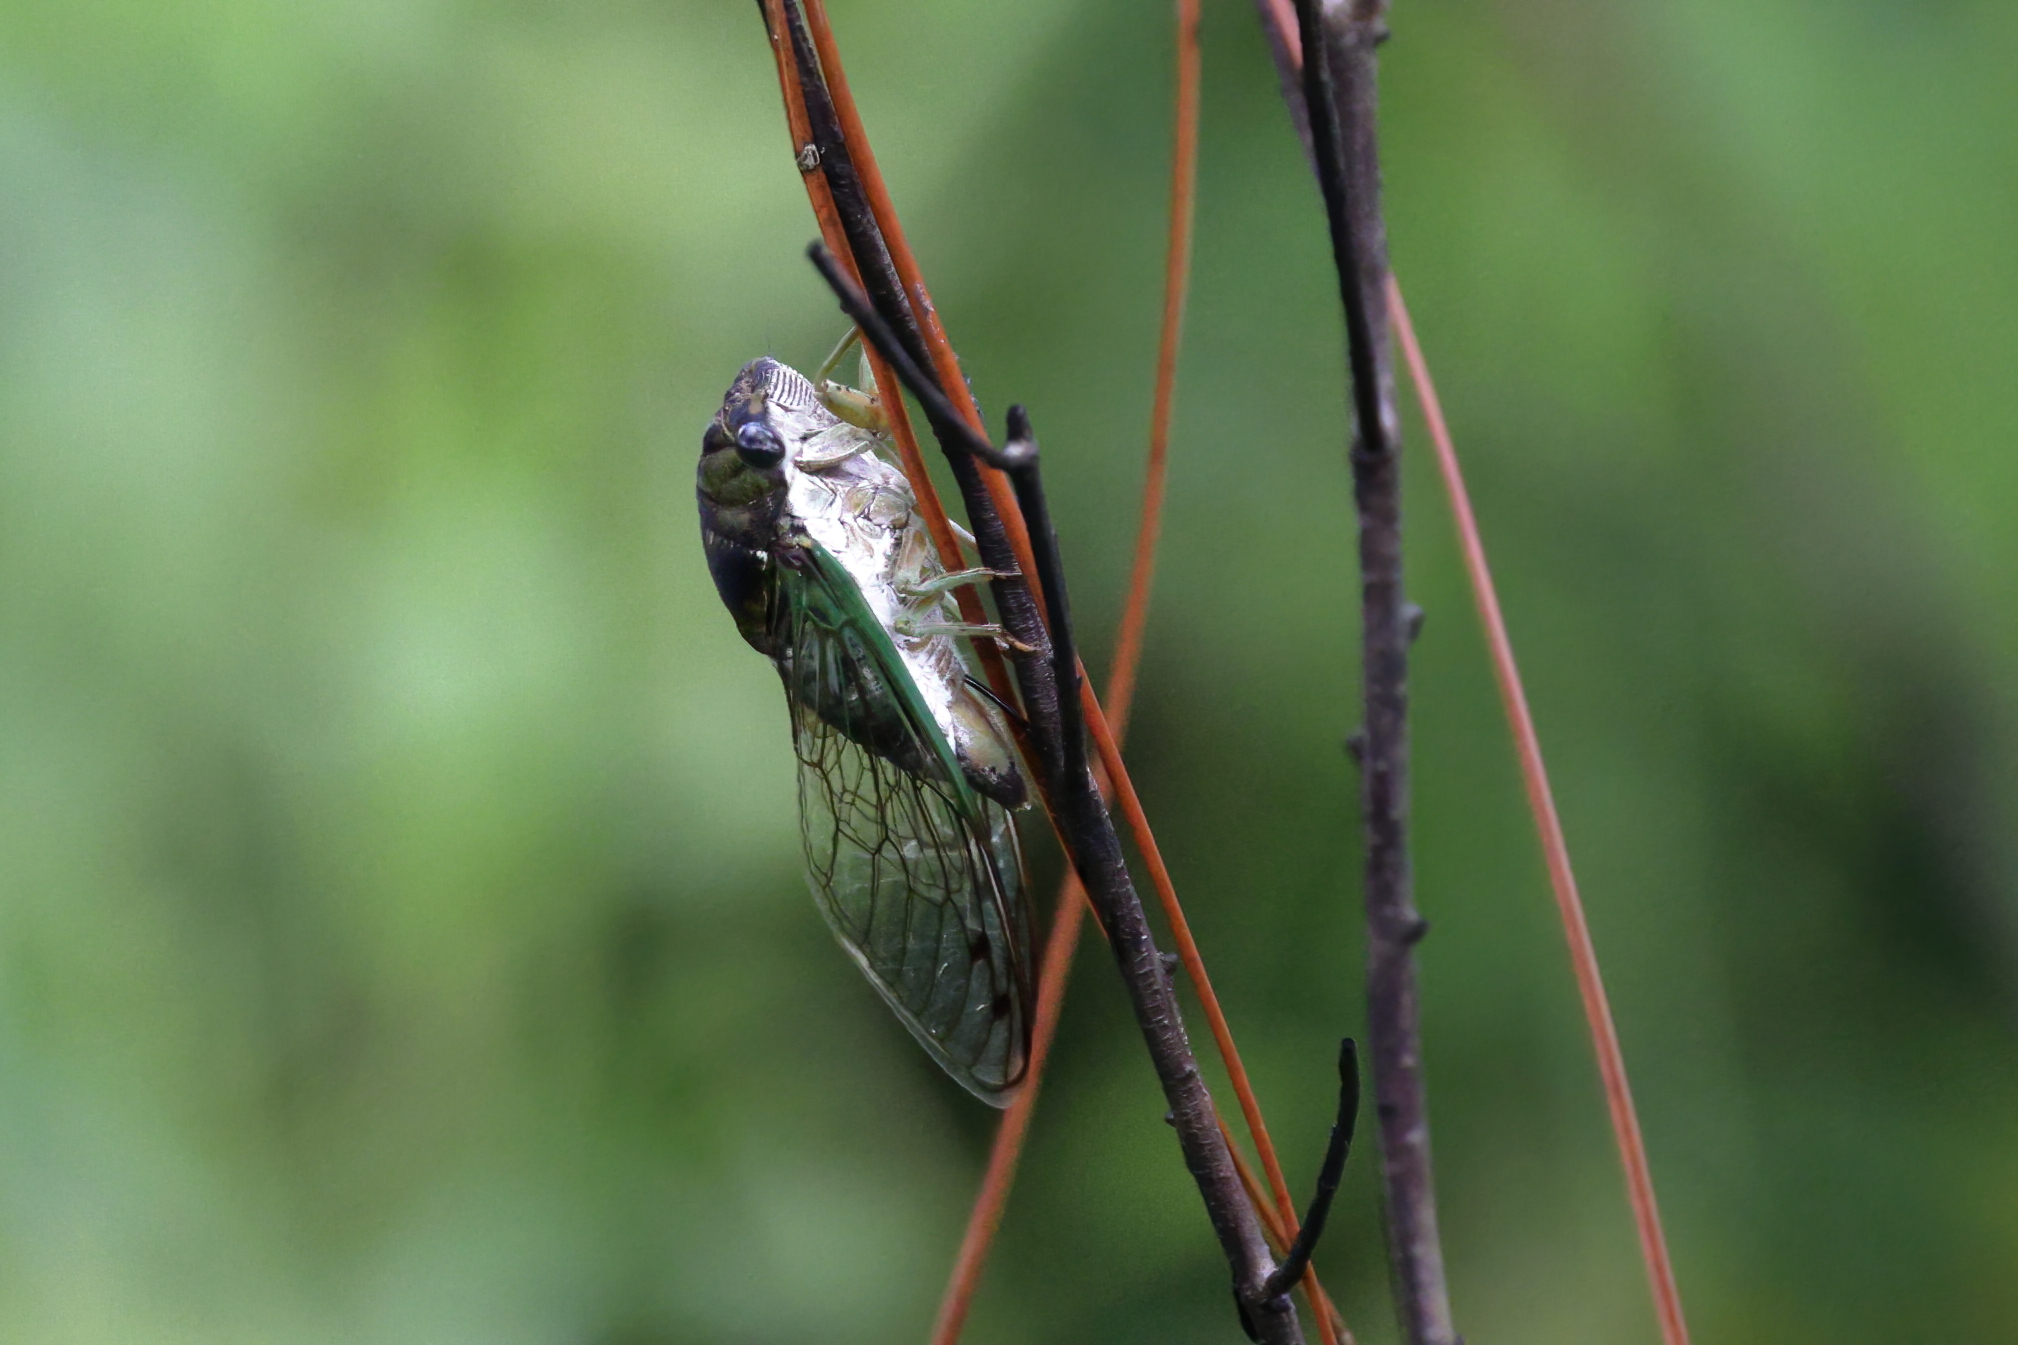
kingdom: Animalia
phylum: Arthropoda
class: Insecta
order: Hemiptera
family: Cicadidae
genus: Neotibicen
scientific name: Neotibicen tibicen
